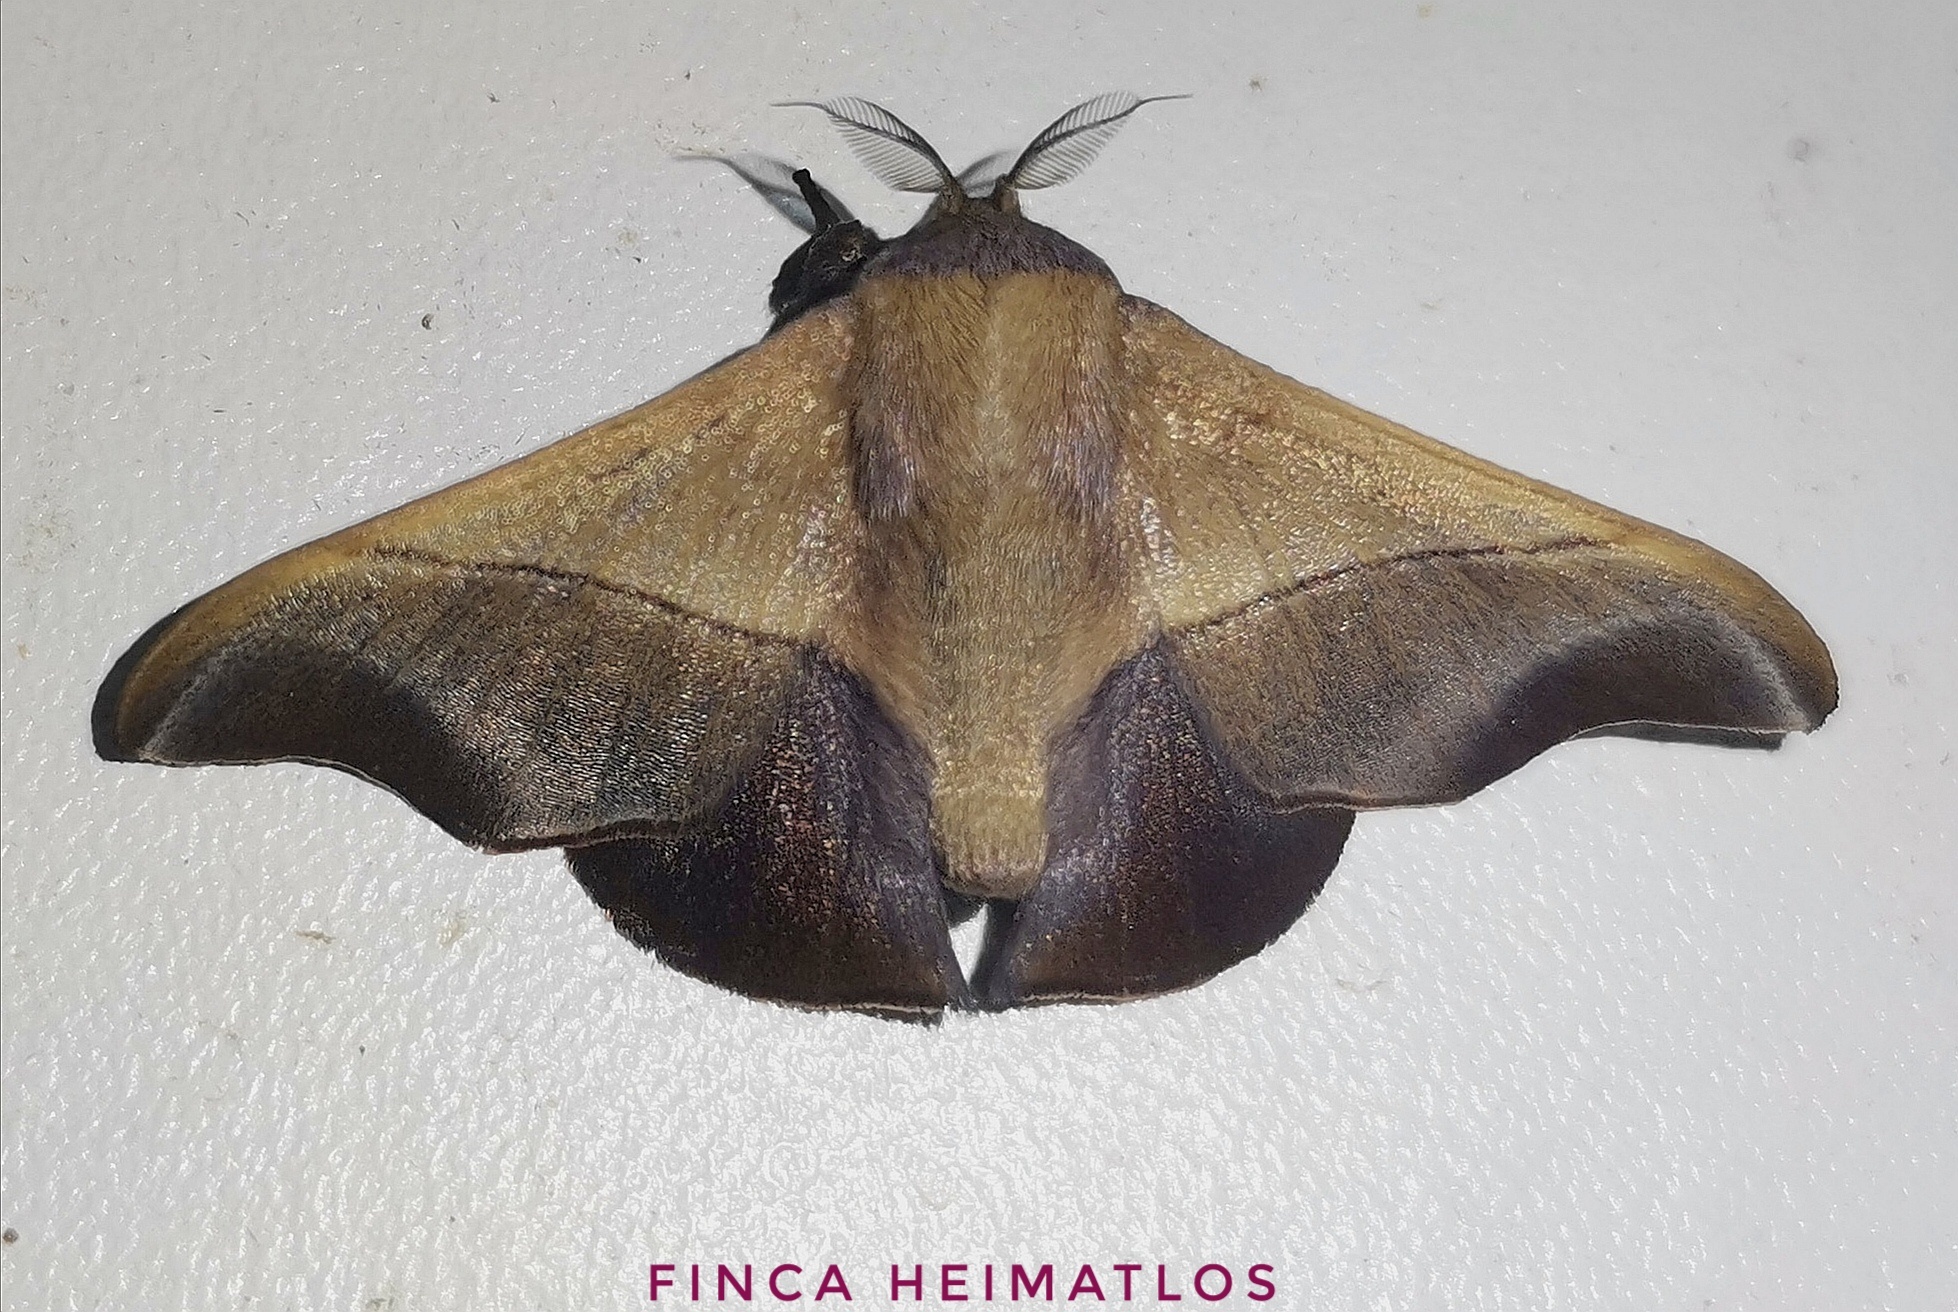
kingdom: Animalia
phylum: Arthropoda
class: Insecta
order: Lepidoptera
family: Mimallonidae
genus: Alheita
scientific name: Alheita obscura
